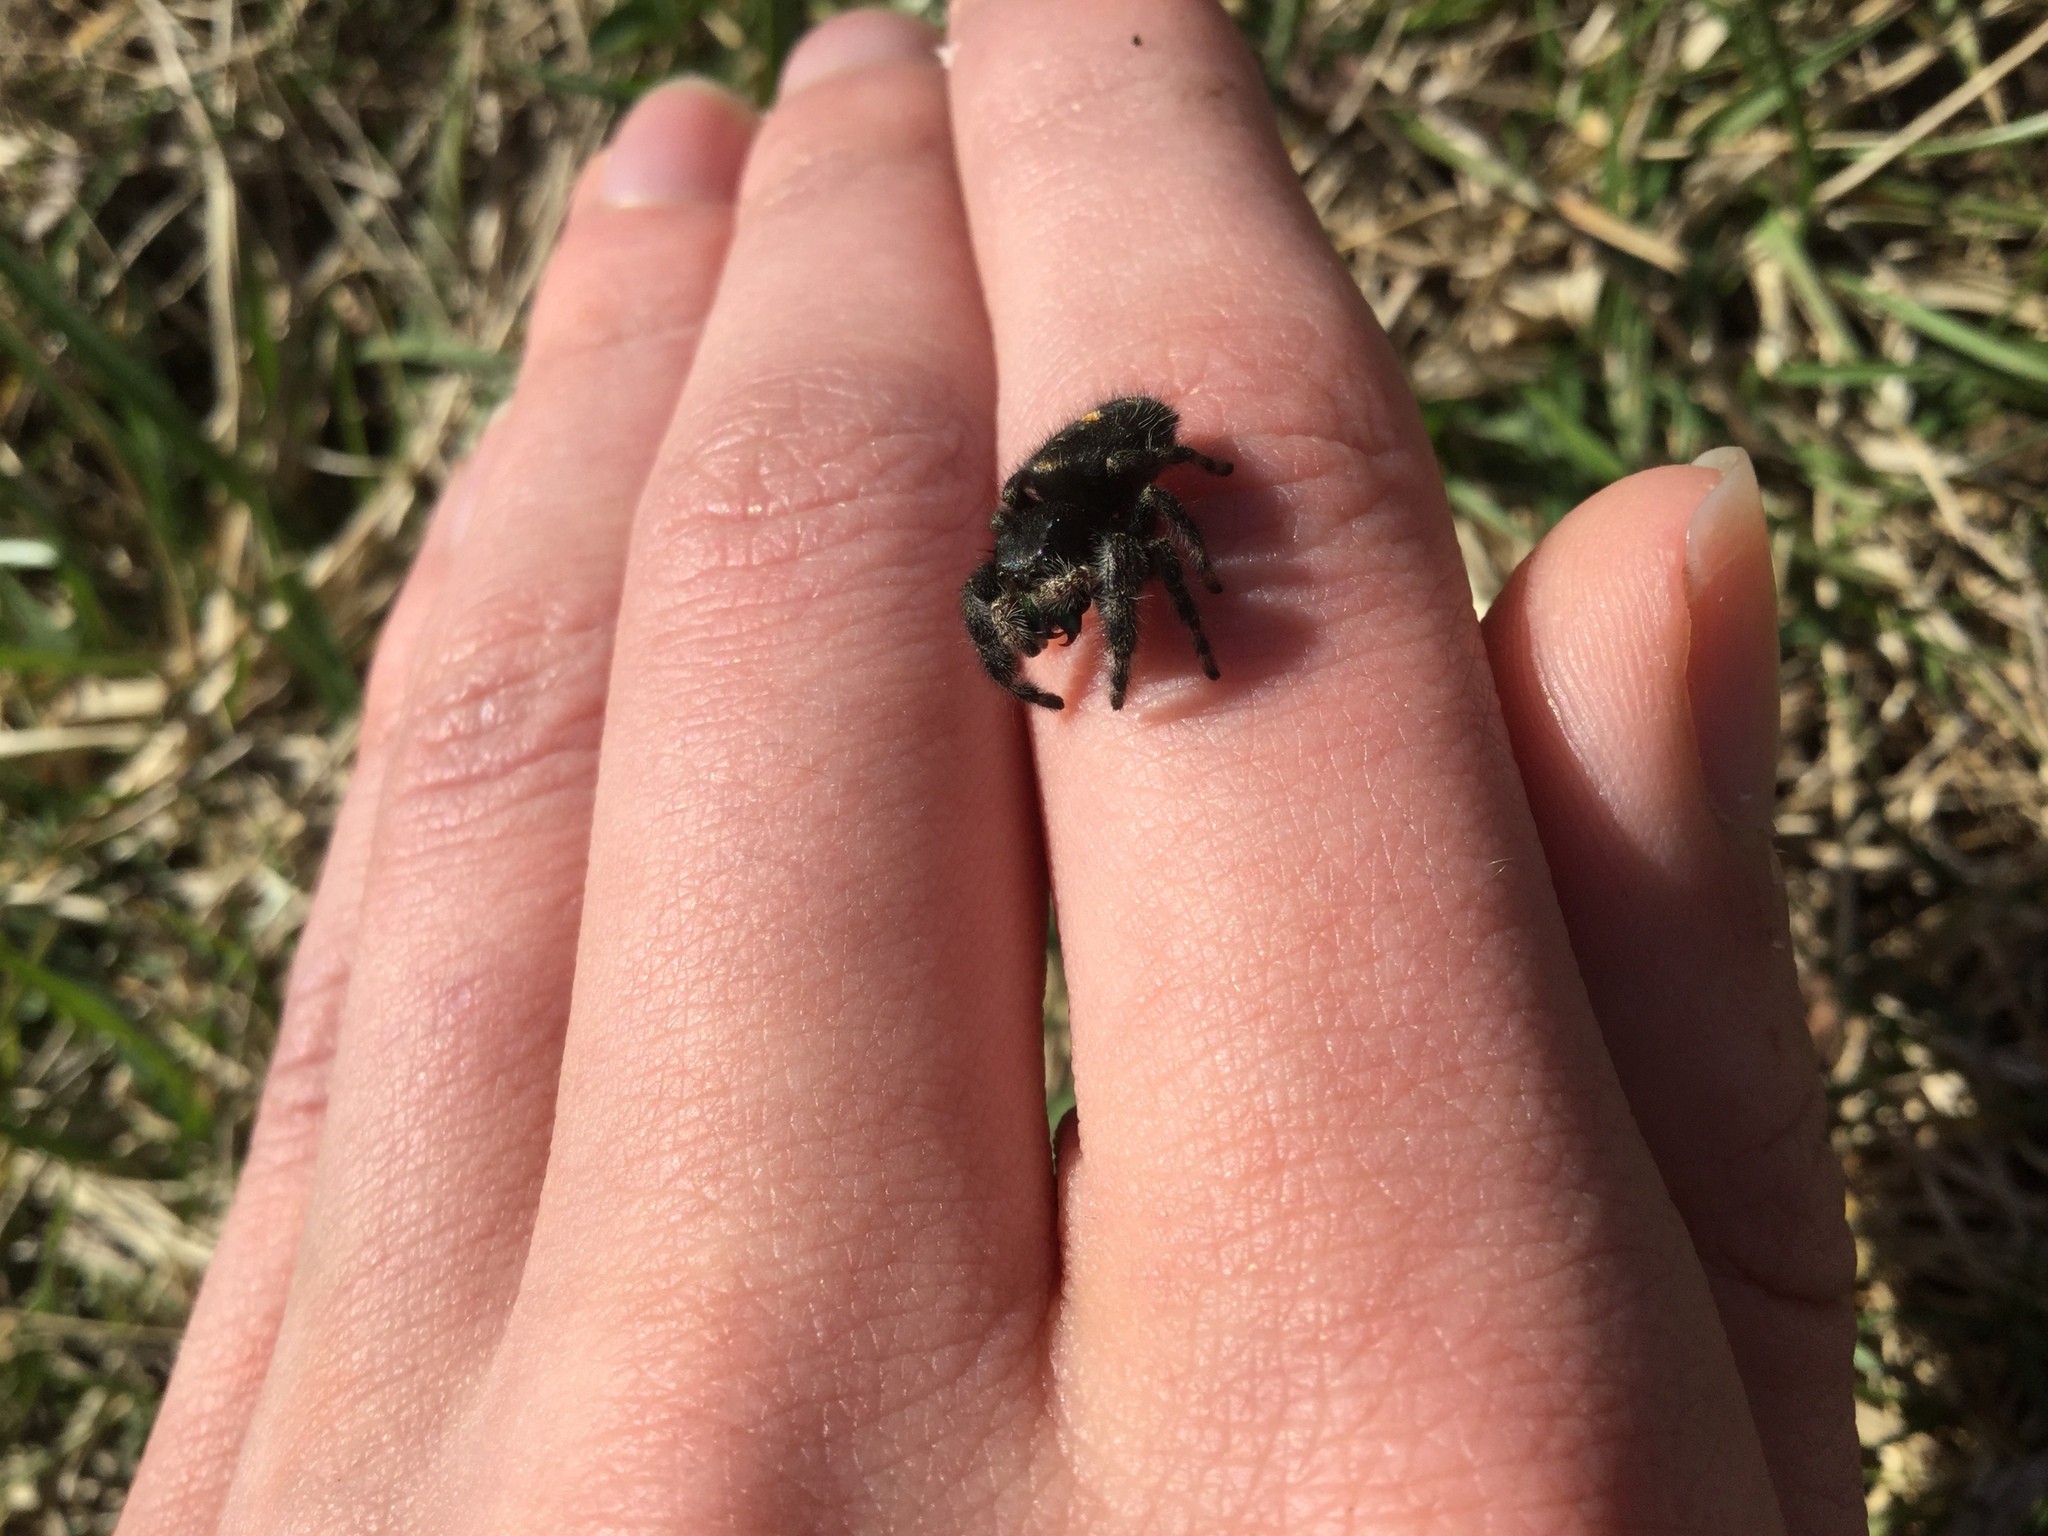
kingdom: Animalia
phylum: Arthropoda
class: Arachnida
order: Araneae
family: Salticidae
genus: Phidippus
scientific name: Phidippus audax
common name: Bold jumper
